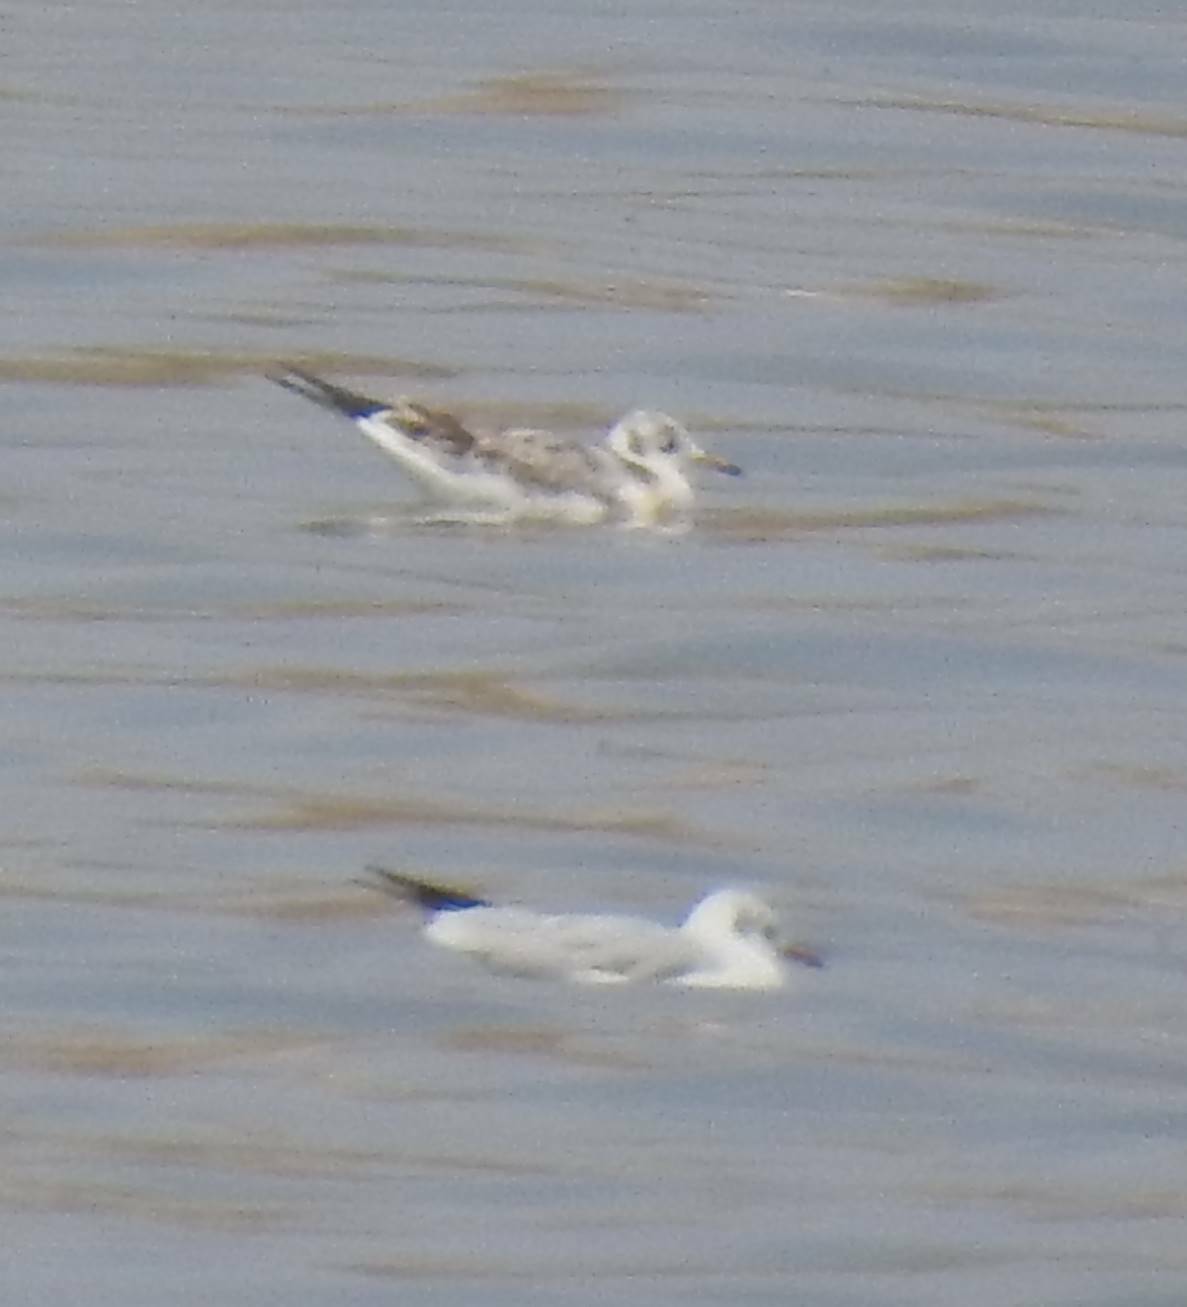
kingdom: Animalia
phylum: Chordata
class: Aves
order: Charadriiformes
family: Laridae
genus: Chroicocephalus
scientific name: Chroicocephalus ridibundus
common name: Black-headed gull
